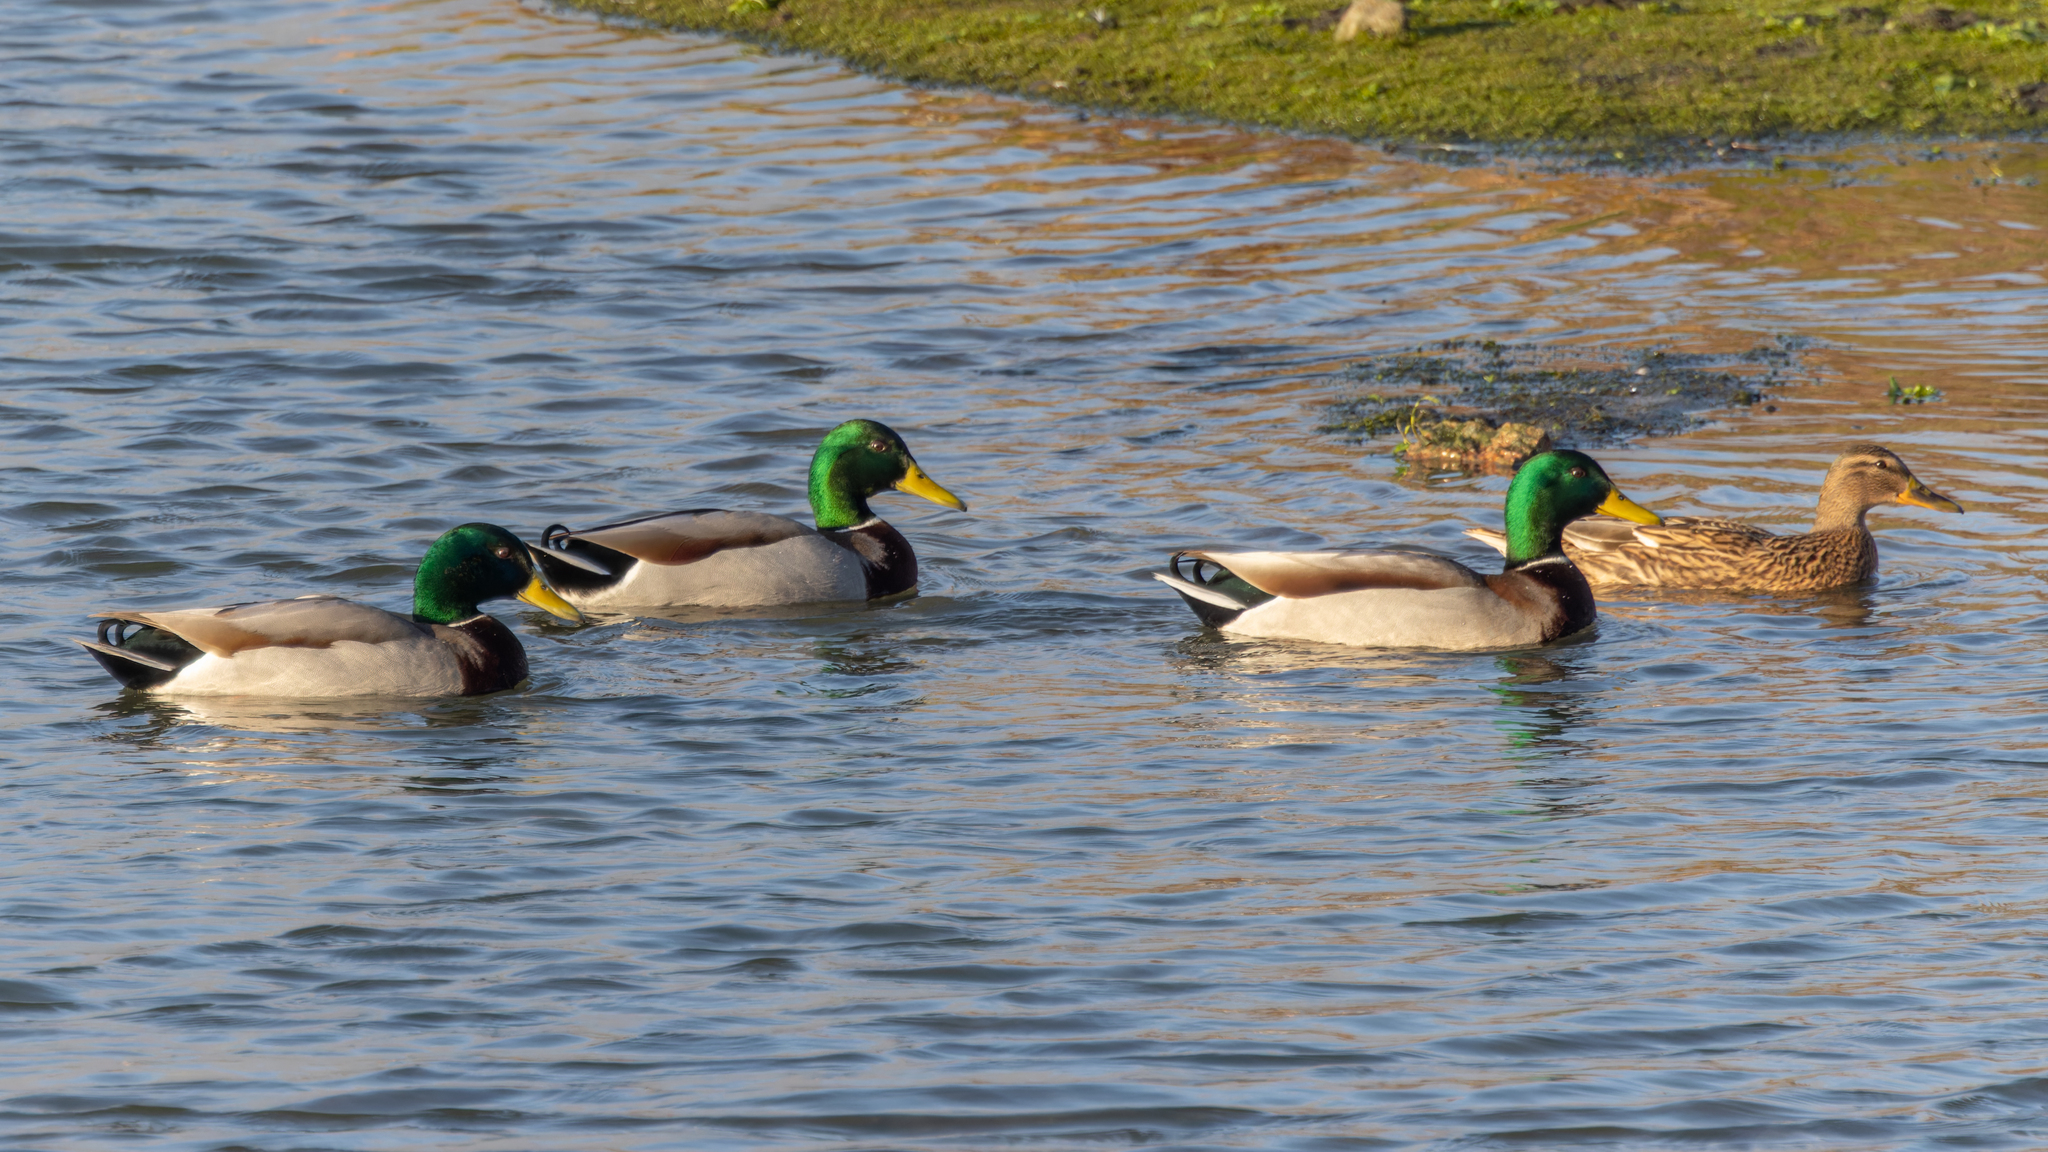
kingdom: Animalia
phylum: Chordata
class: Aves
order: Anseriformes
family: Anatidae
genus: Anas
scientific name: Anas platyrhynchos
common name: Mallard
